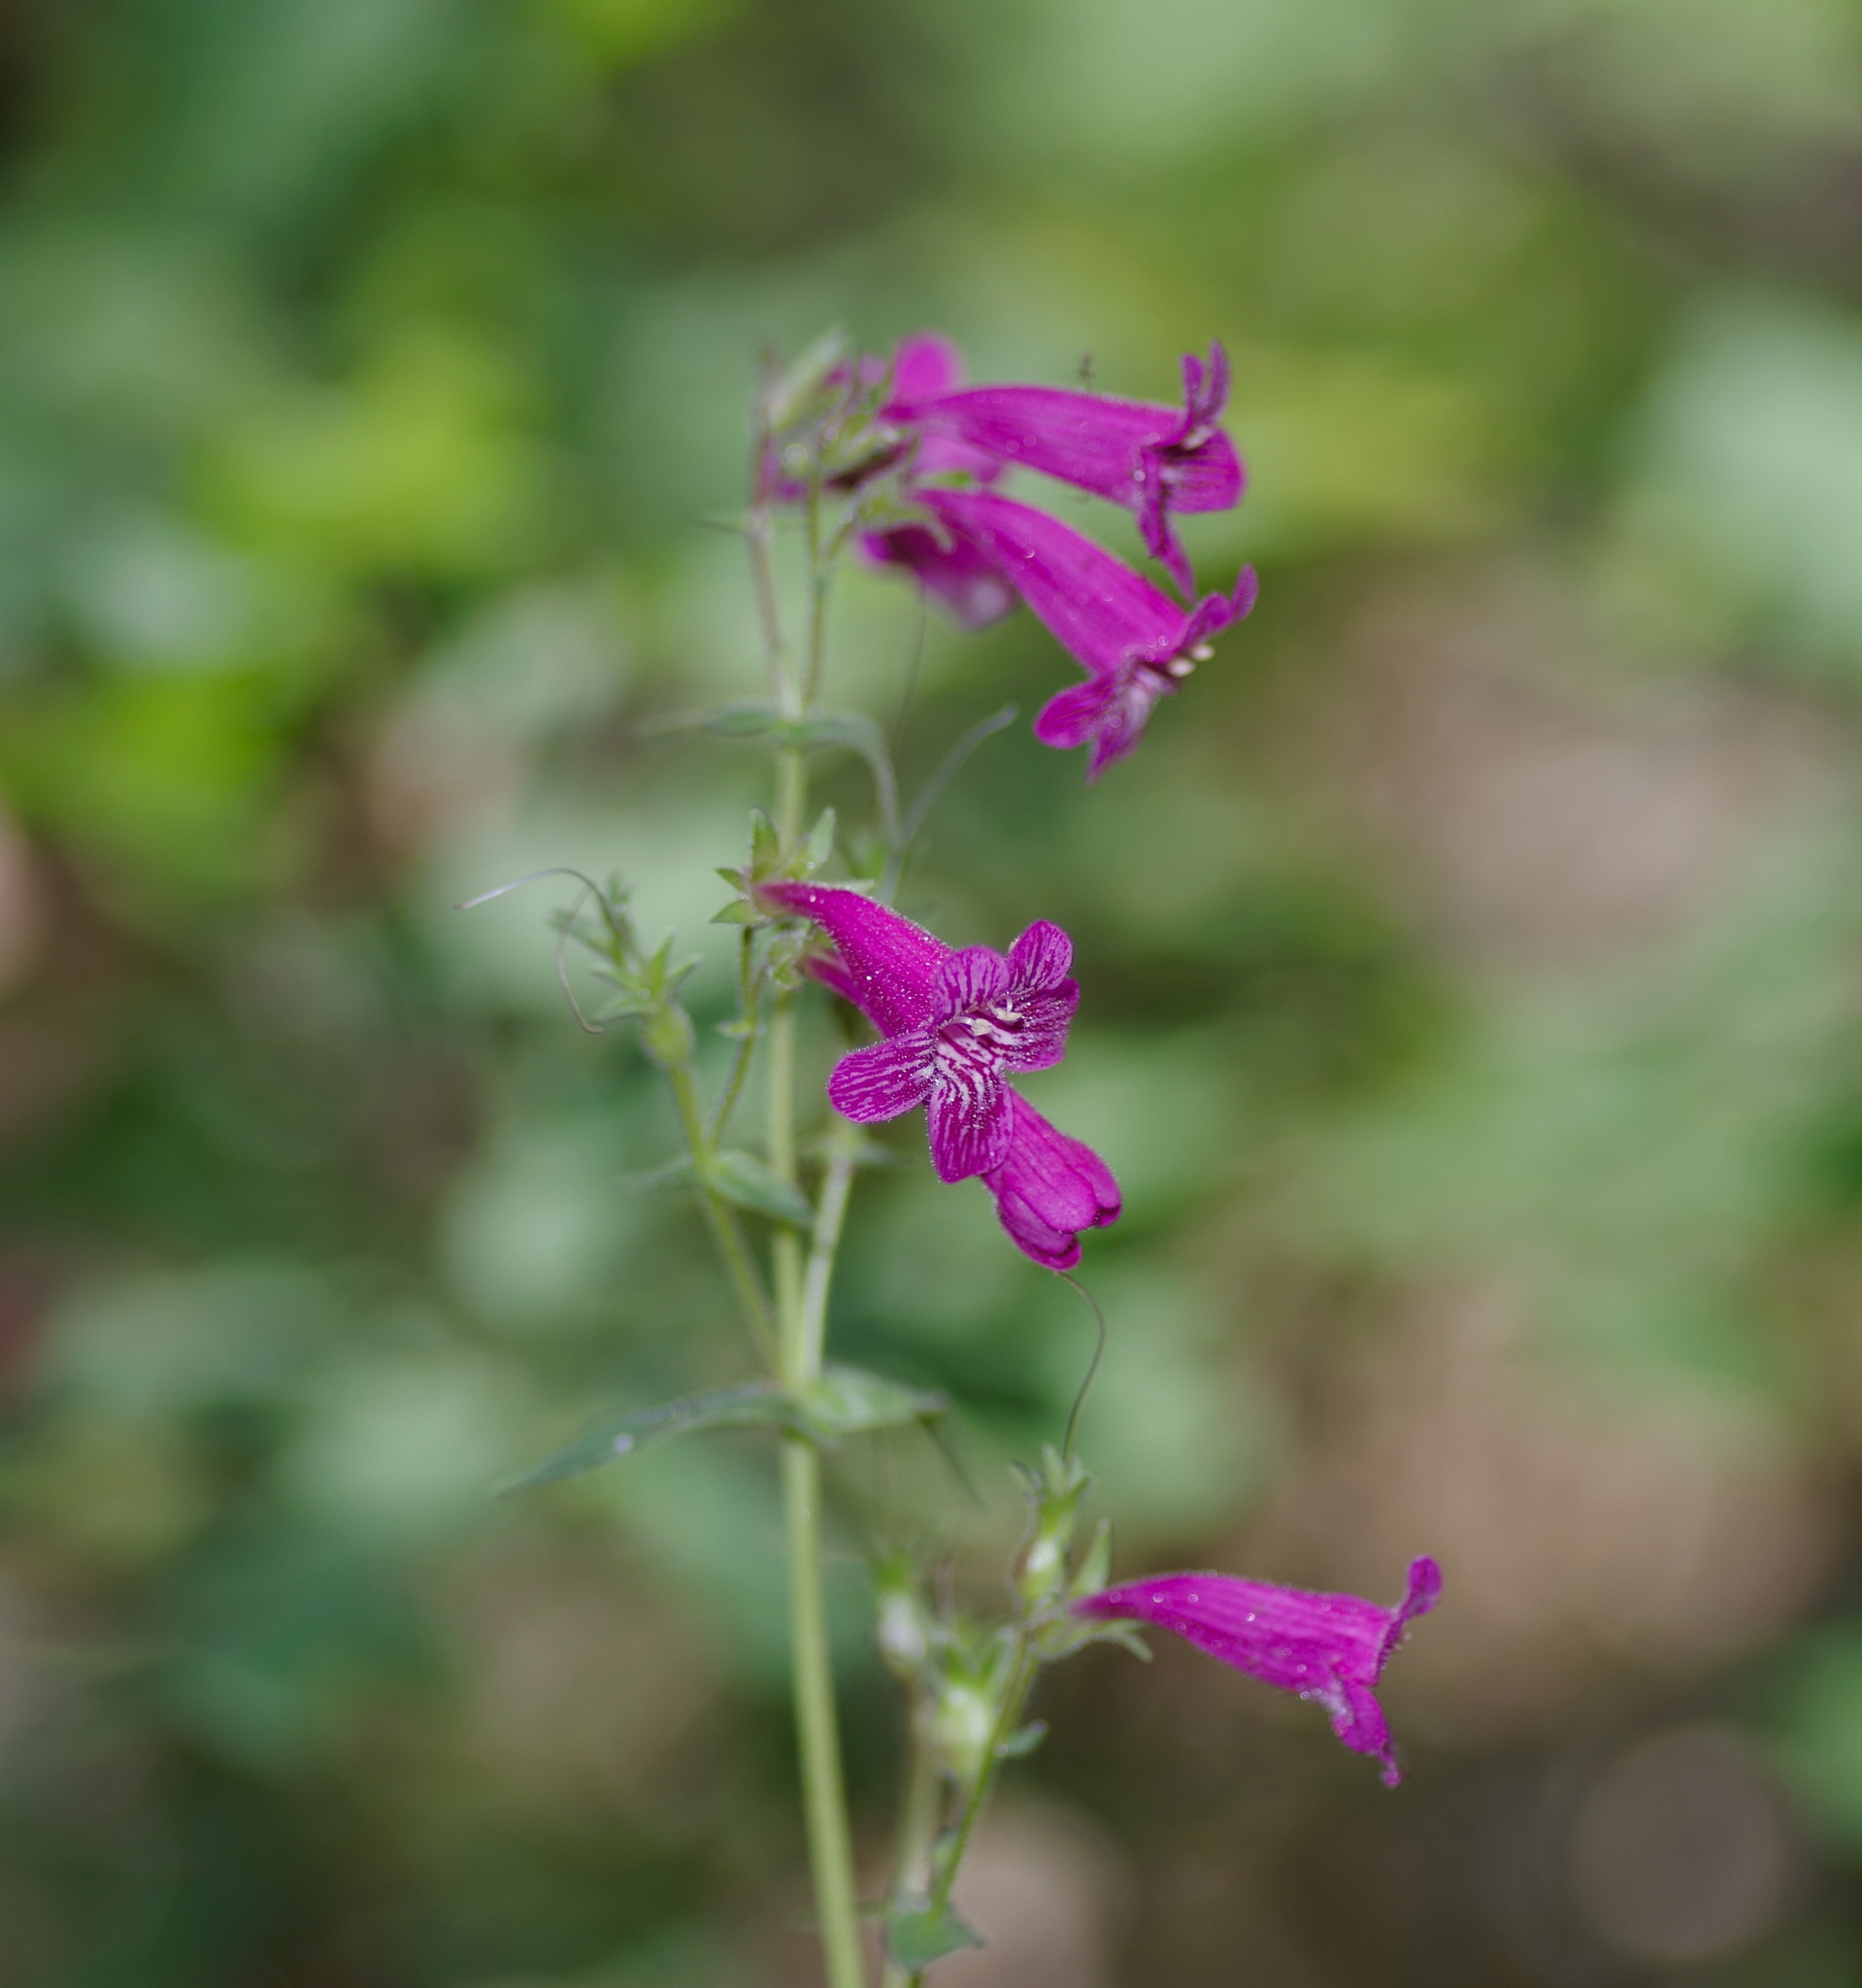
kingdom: Plantae
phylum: Tracheophyta
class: Magnoliopsida
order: Lamiales
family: Plantaginaceae
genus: Penstemon
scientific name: Penstemon triflorus
